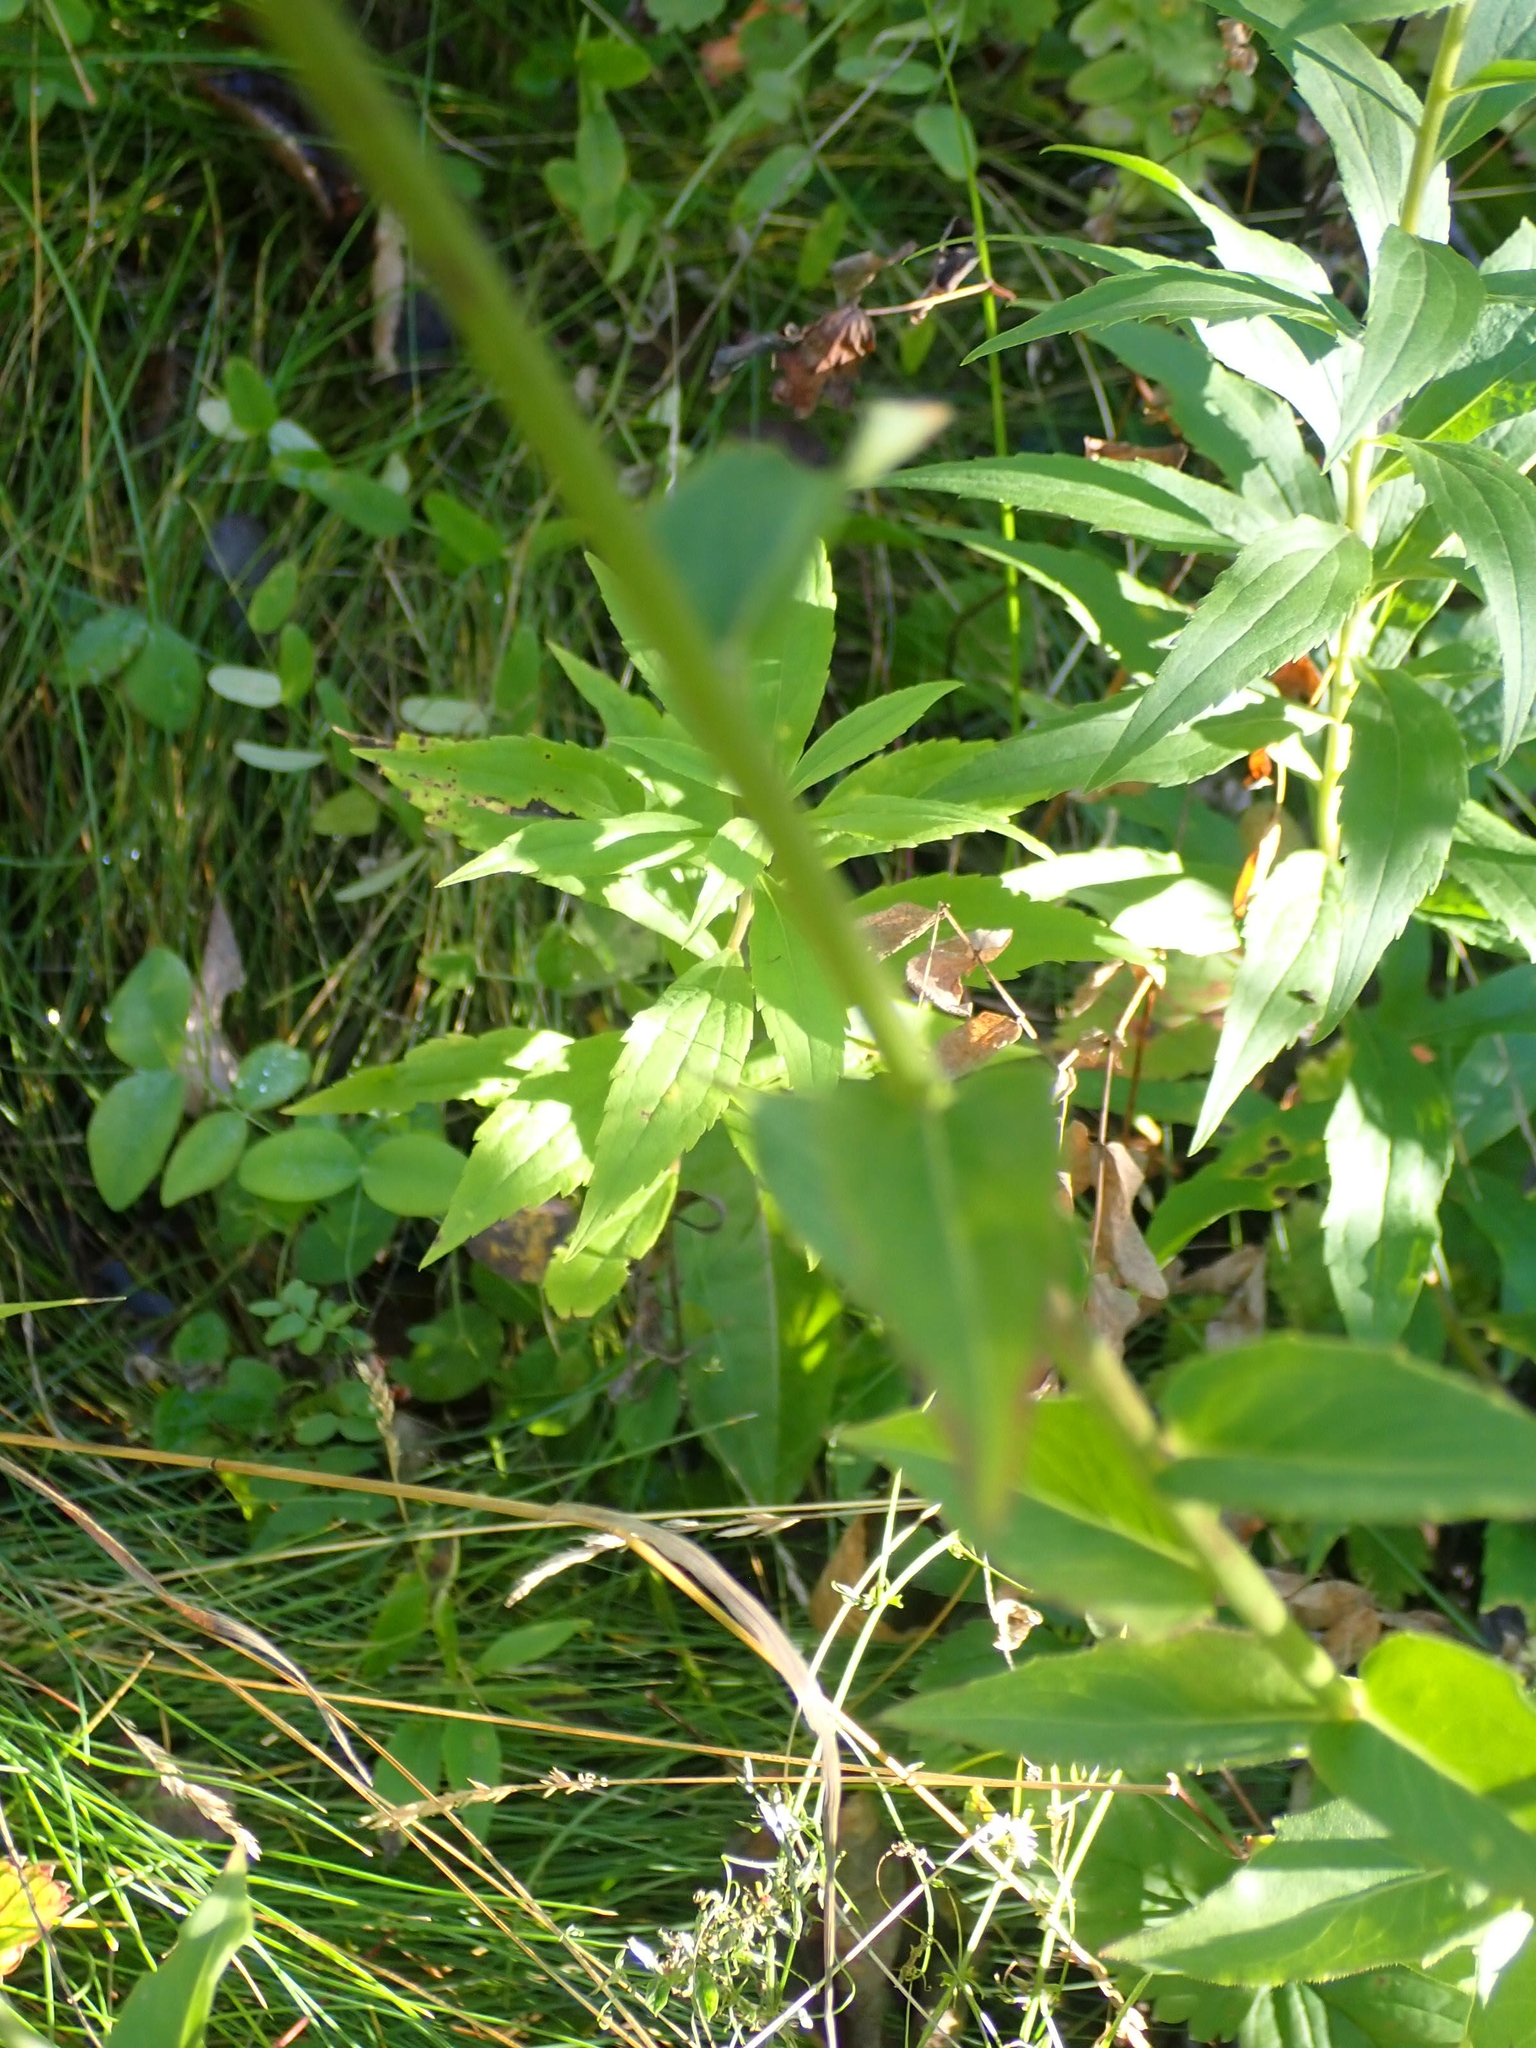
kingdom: Plantae
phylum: Tracheophyta
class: Magnoliopsida
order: Asterales
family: Asteraceae
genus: Hieracium
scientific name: Hieracium umbellatum
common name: Northern hawkweed
